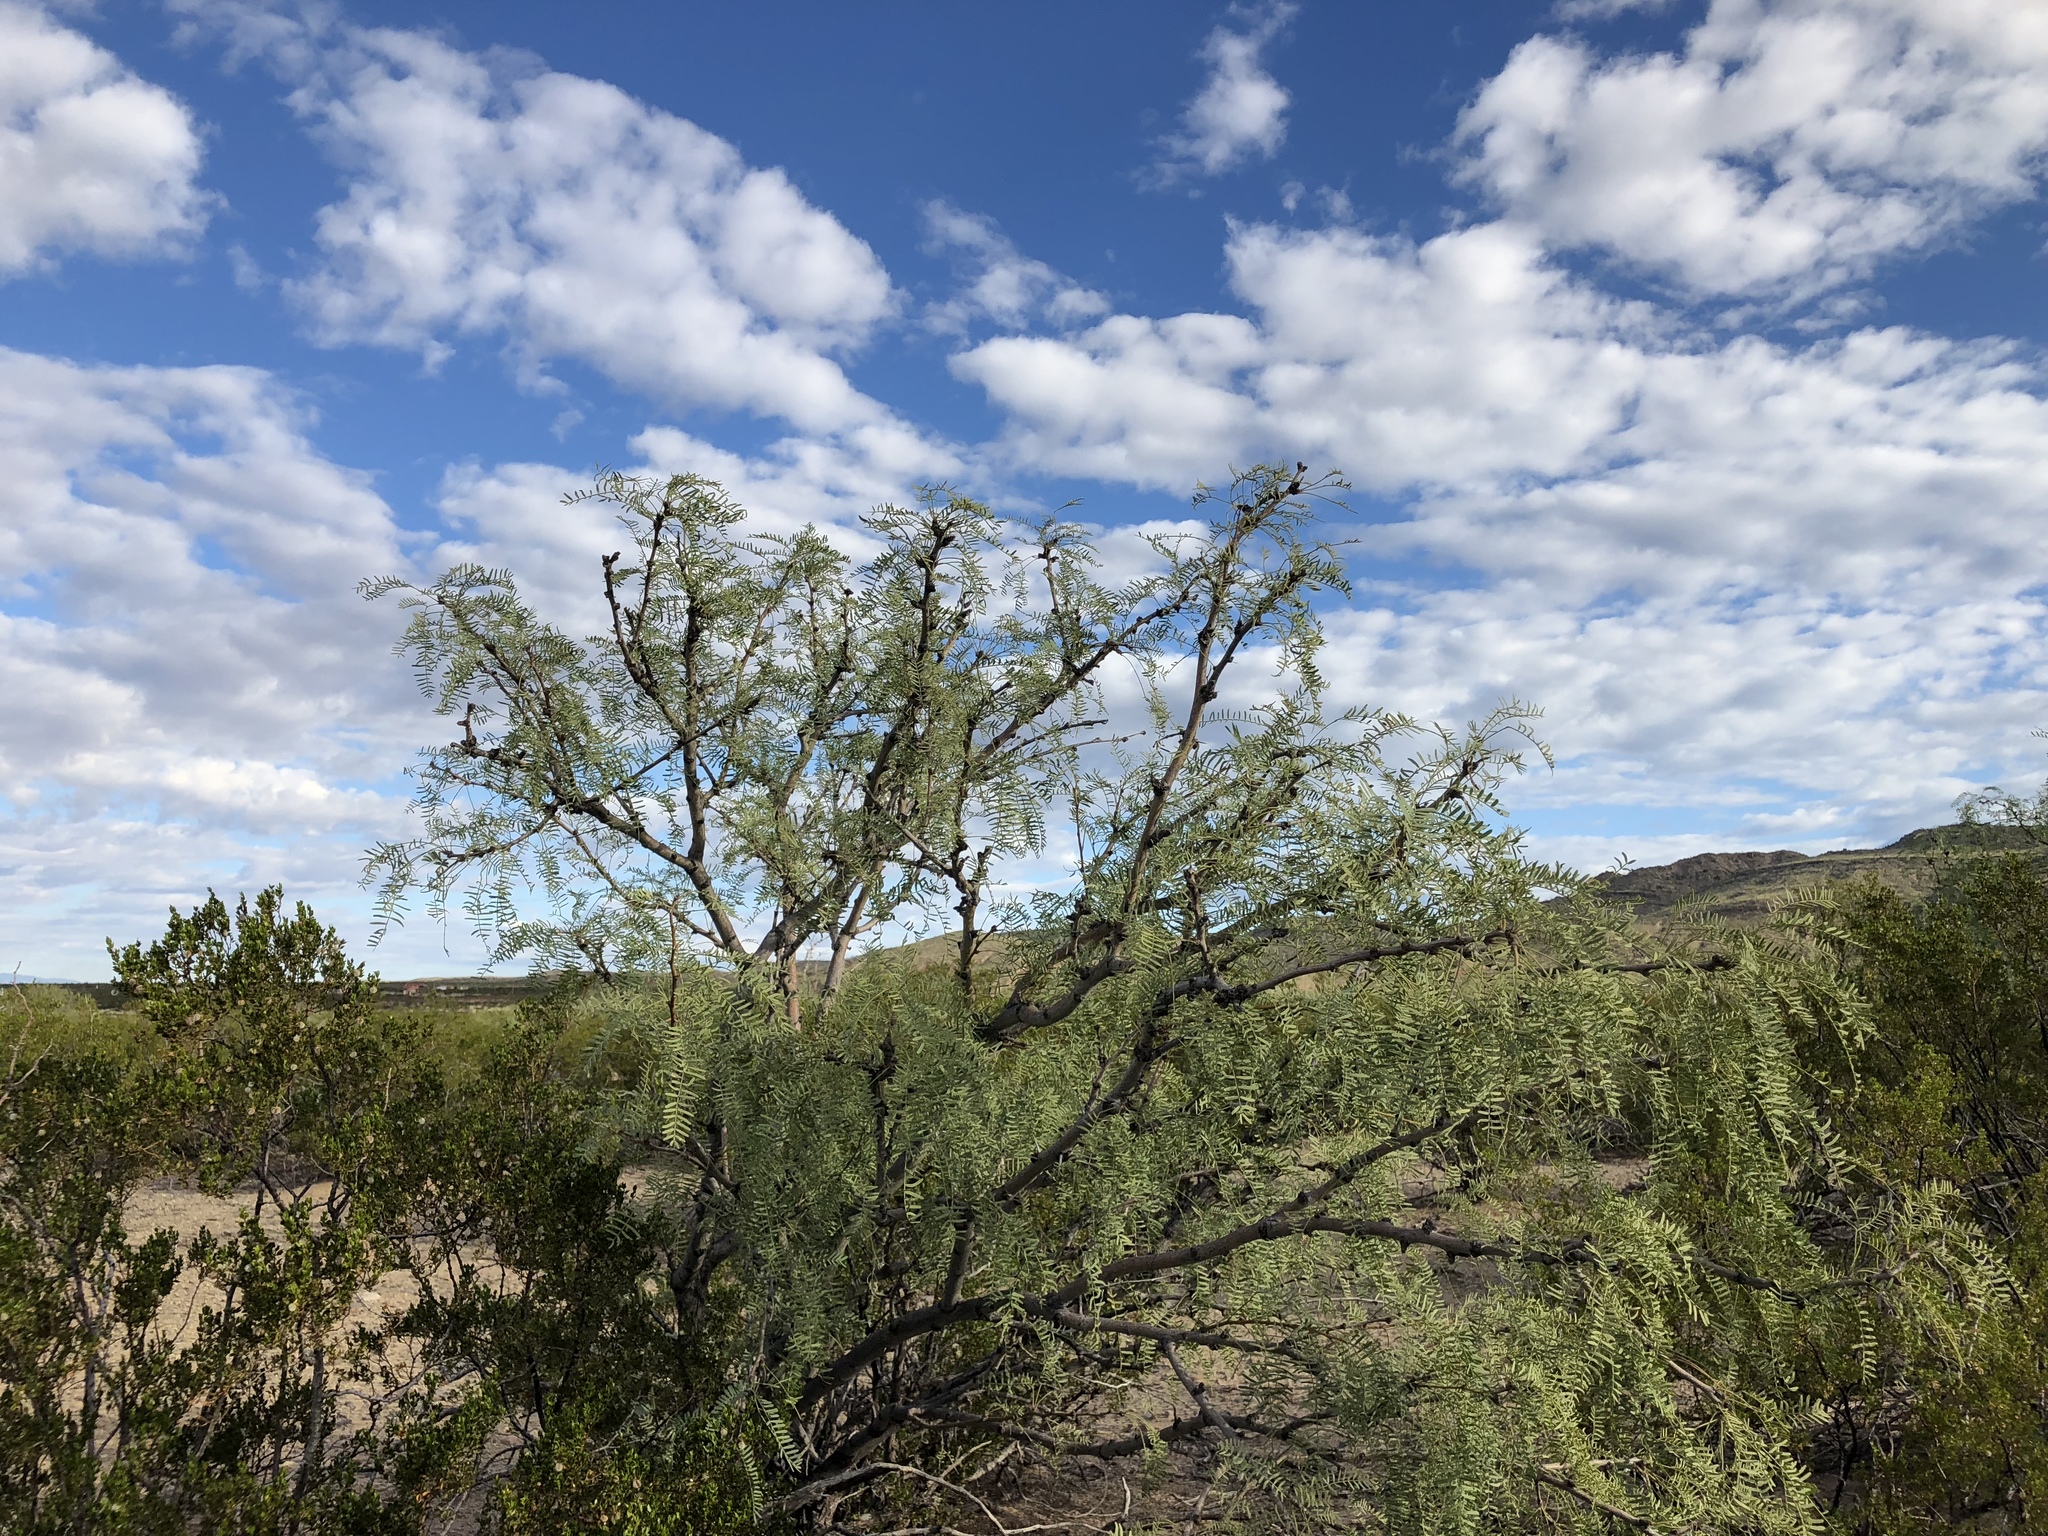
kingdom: Plantae
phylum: Tracheophyta
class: Magnoliopsida
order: Fabales
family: Fabaceae
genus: Prosopis
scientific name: Prosopis glandulosa
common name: Honey mesquite
